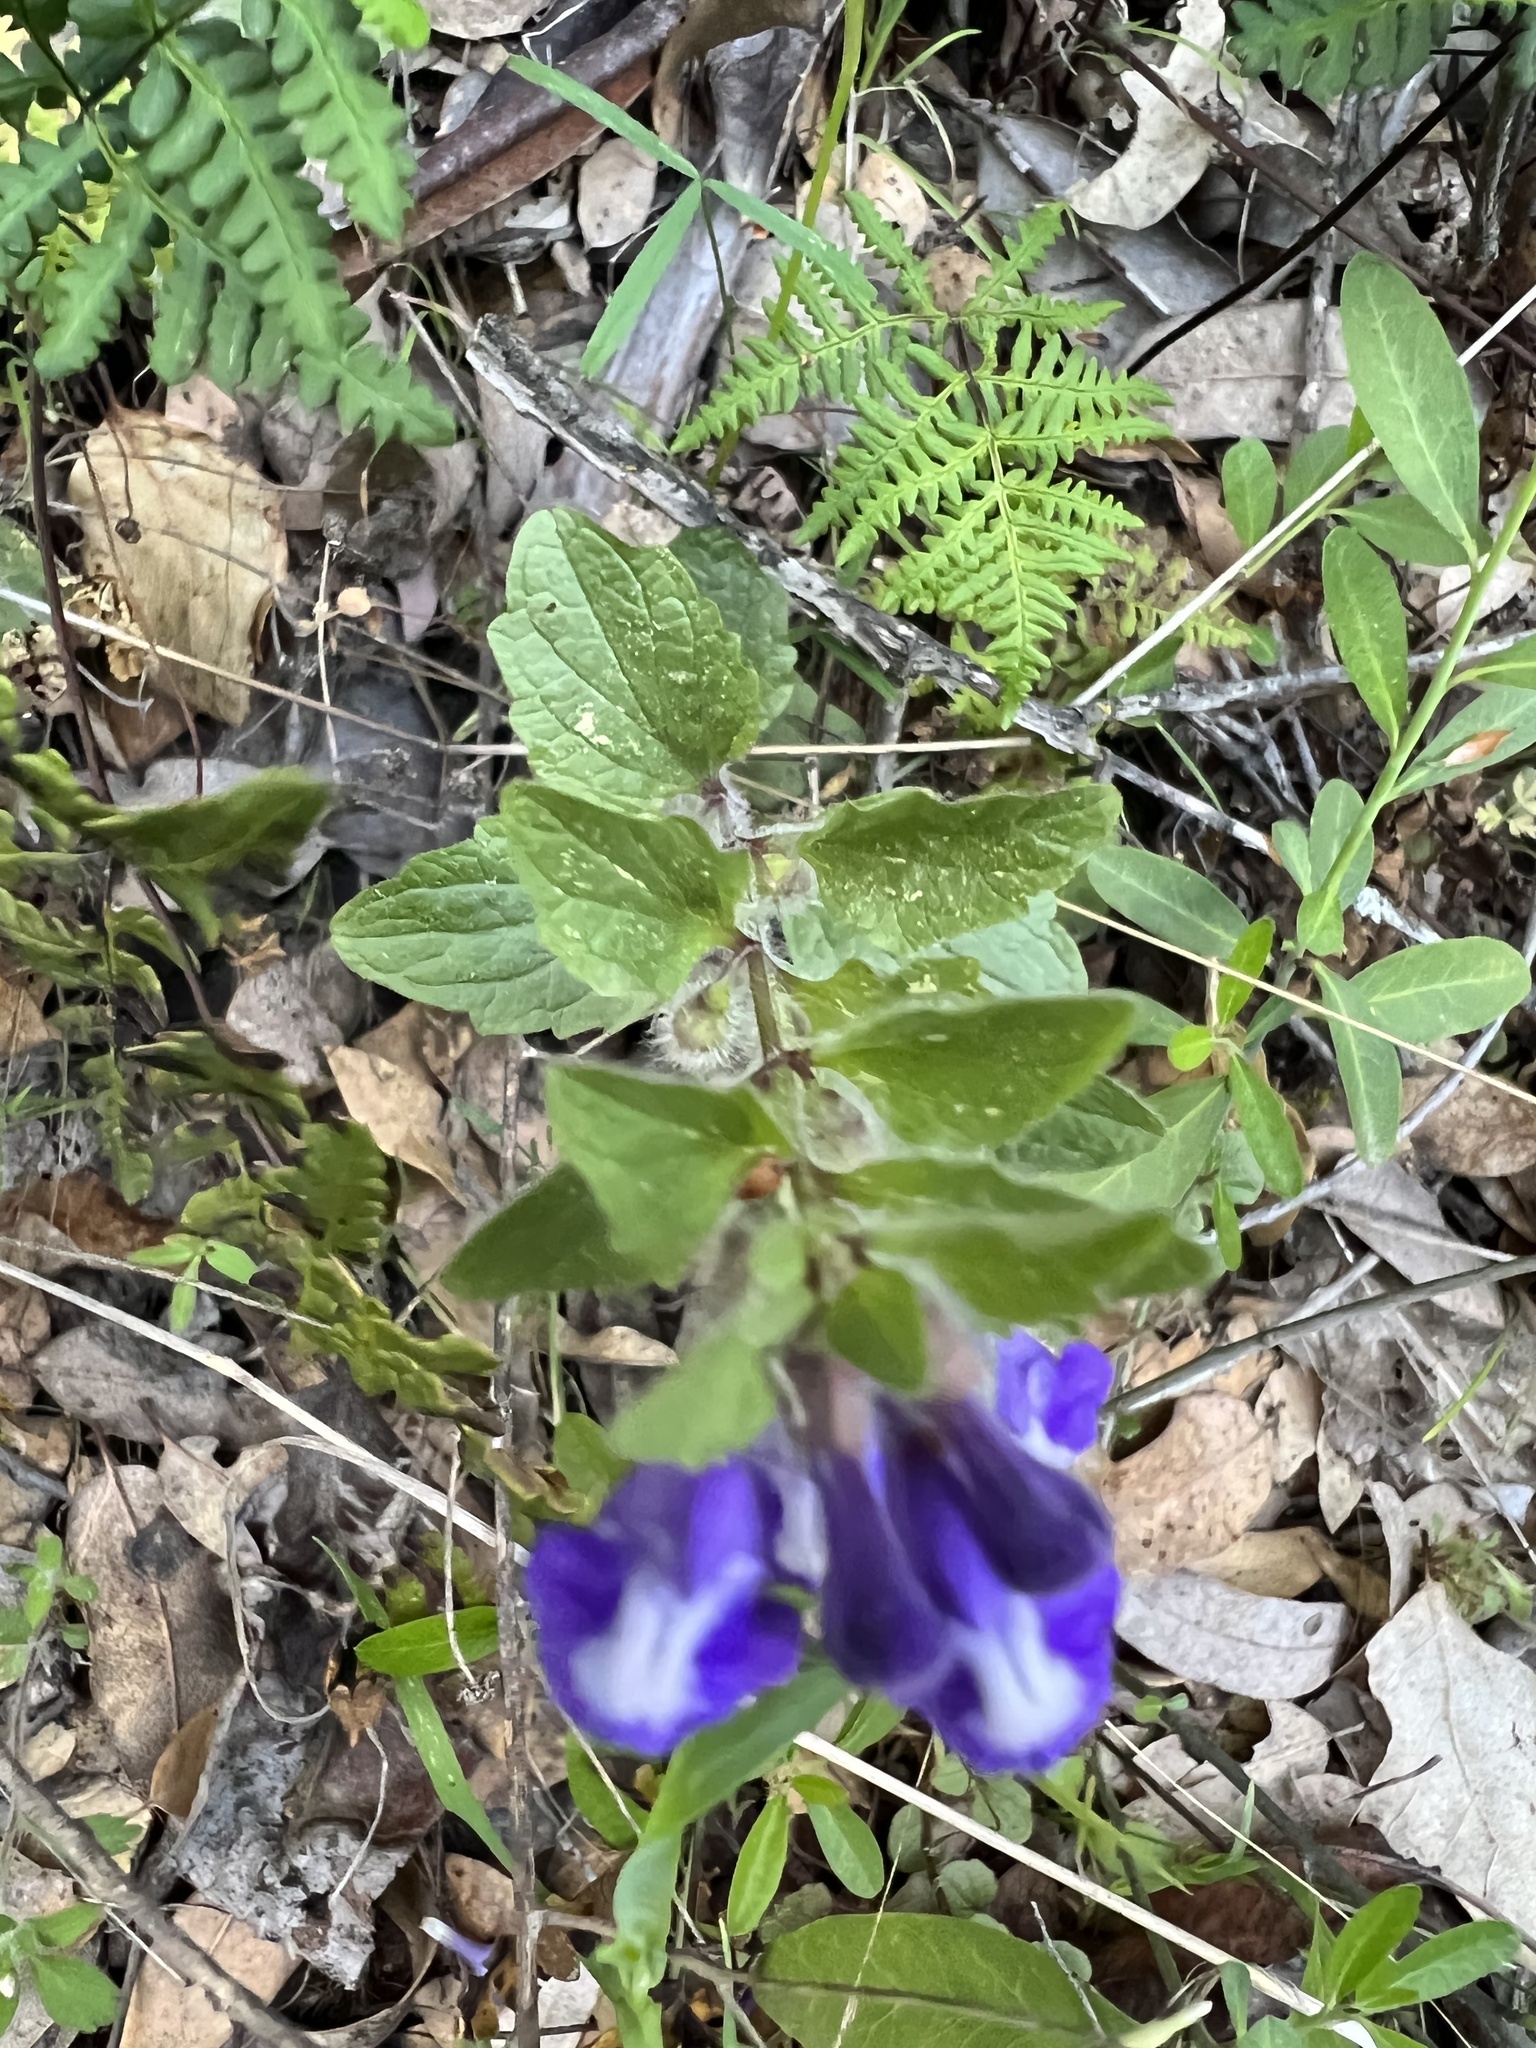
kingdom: Plantae
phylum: Tracheophyta
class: Magnoliopsida
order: Lamiales
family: Lamiaceae
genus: Scutellaria
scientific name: Scutellaria tuberosa
